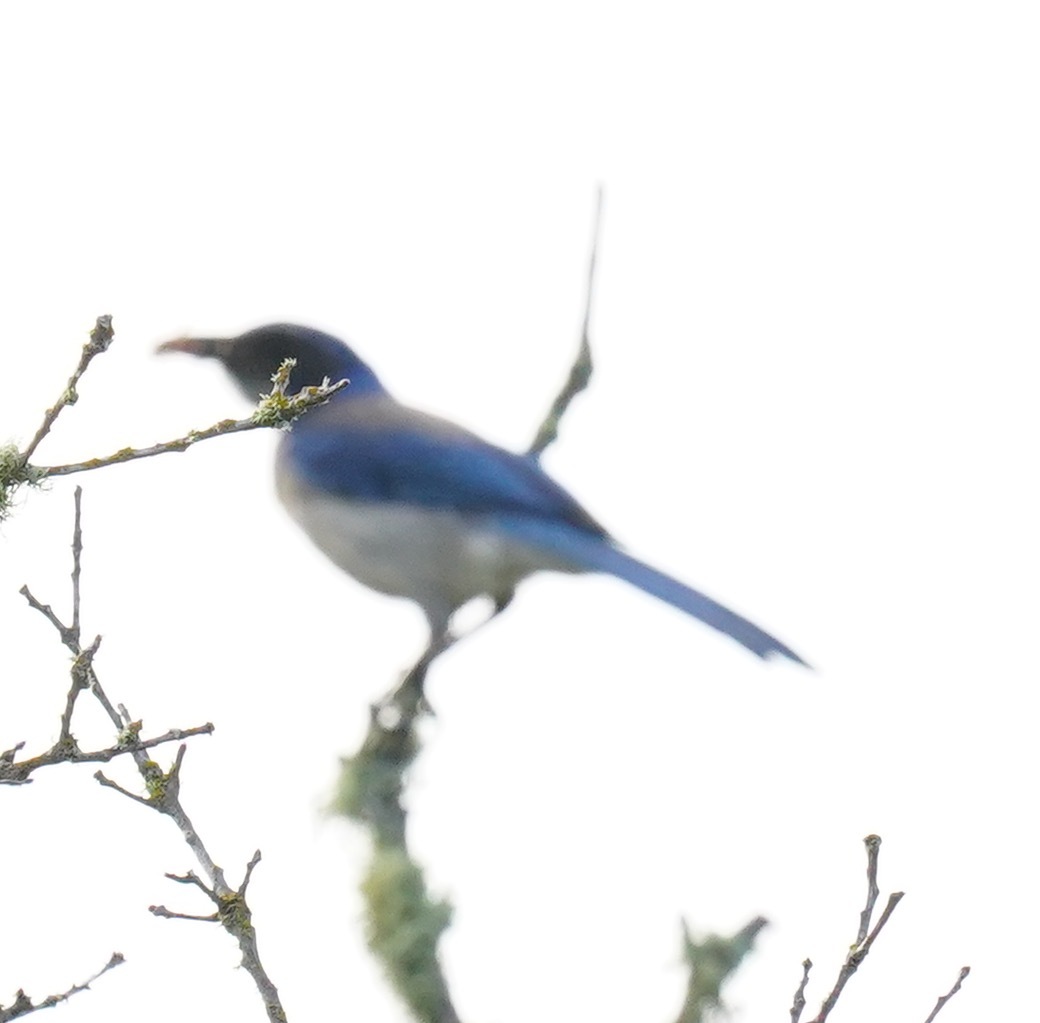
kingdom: Animalia
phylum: Chordata
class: Aves
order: Passeriformes
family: Corvidae
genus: Aphelocoma
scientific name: Aphelocoma californica
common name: California scrub-jay
